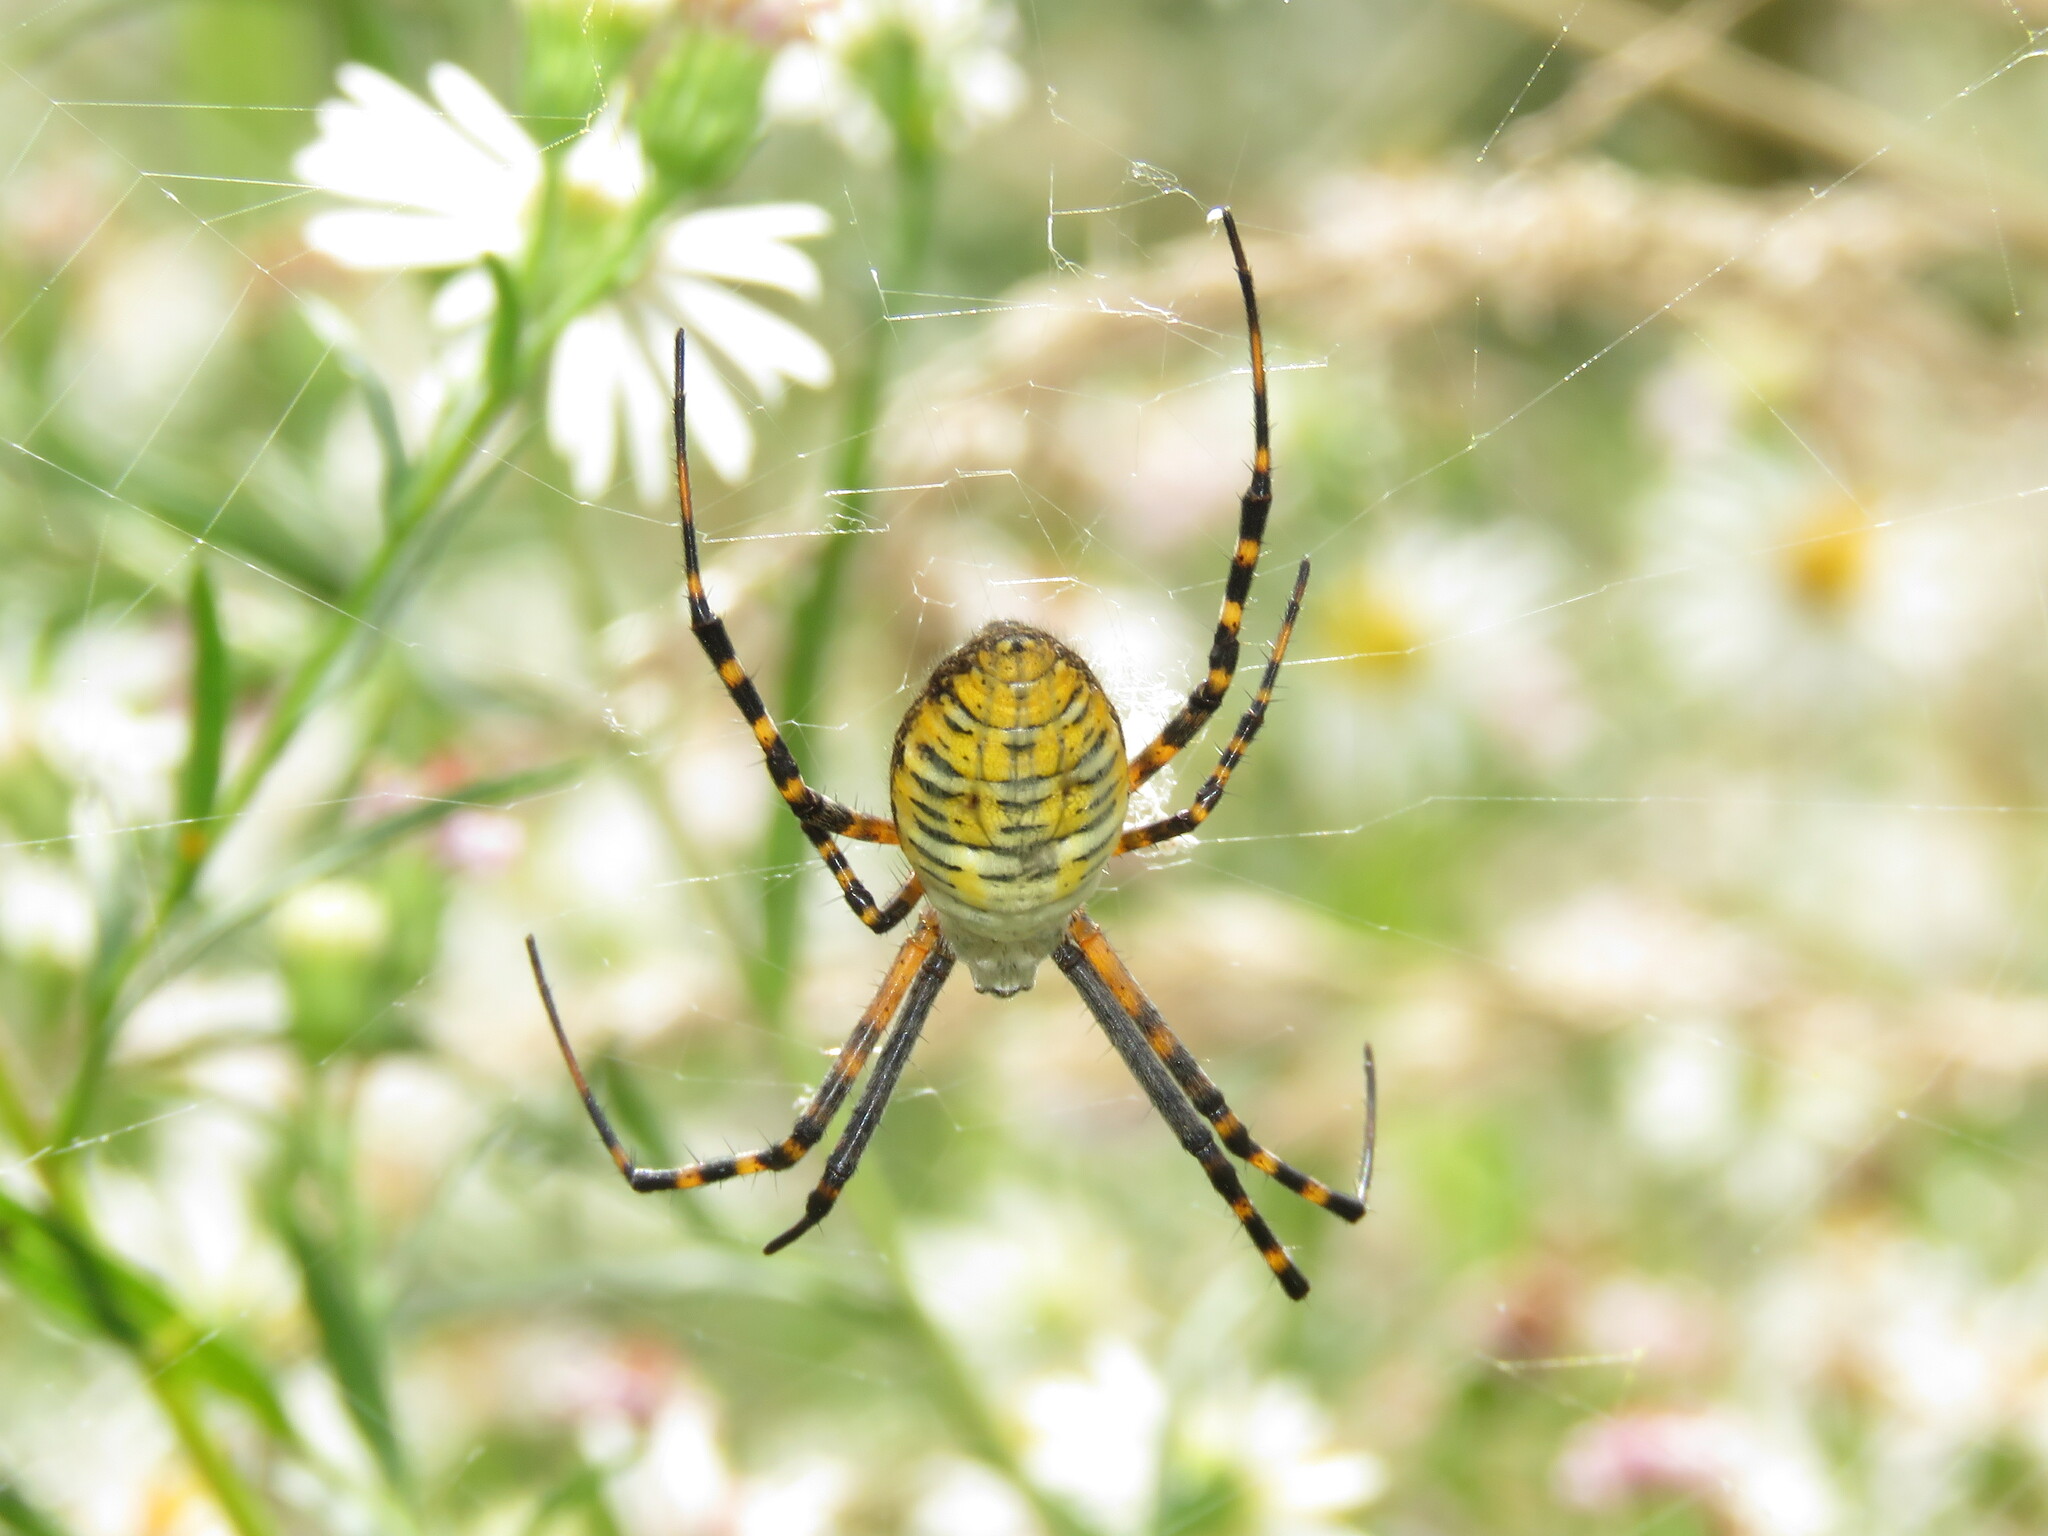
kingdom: Animalia
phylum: Arthropoda
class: Arachnida
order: Araneae
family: Araneidae
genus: Argiope
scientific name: Argiope trifasciata
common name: Banded garden spider
